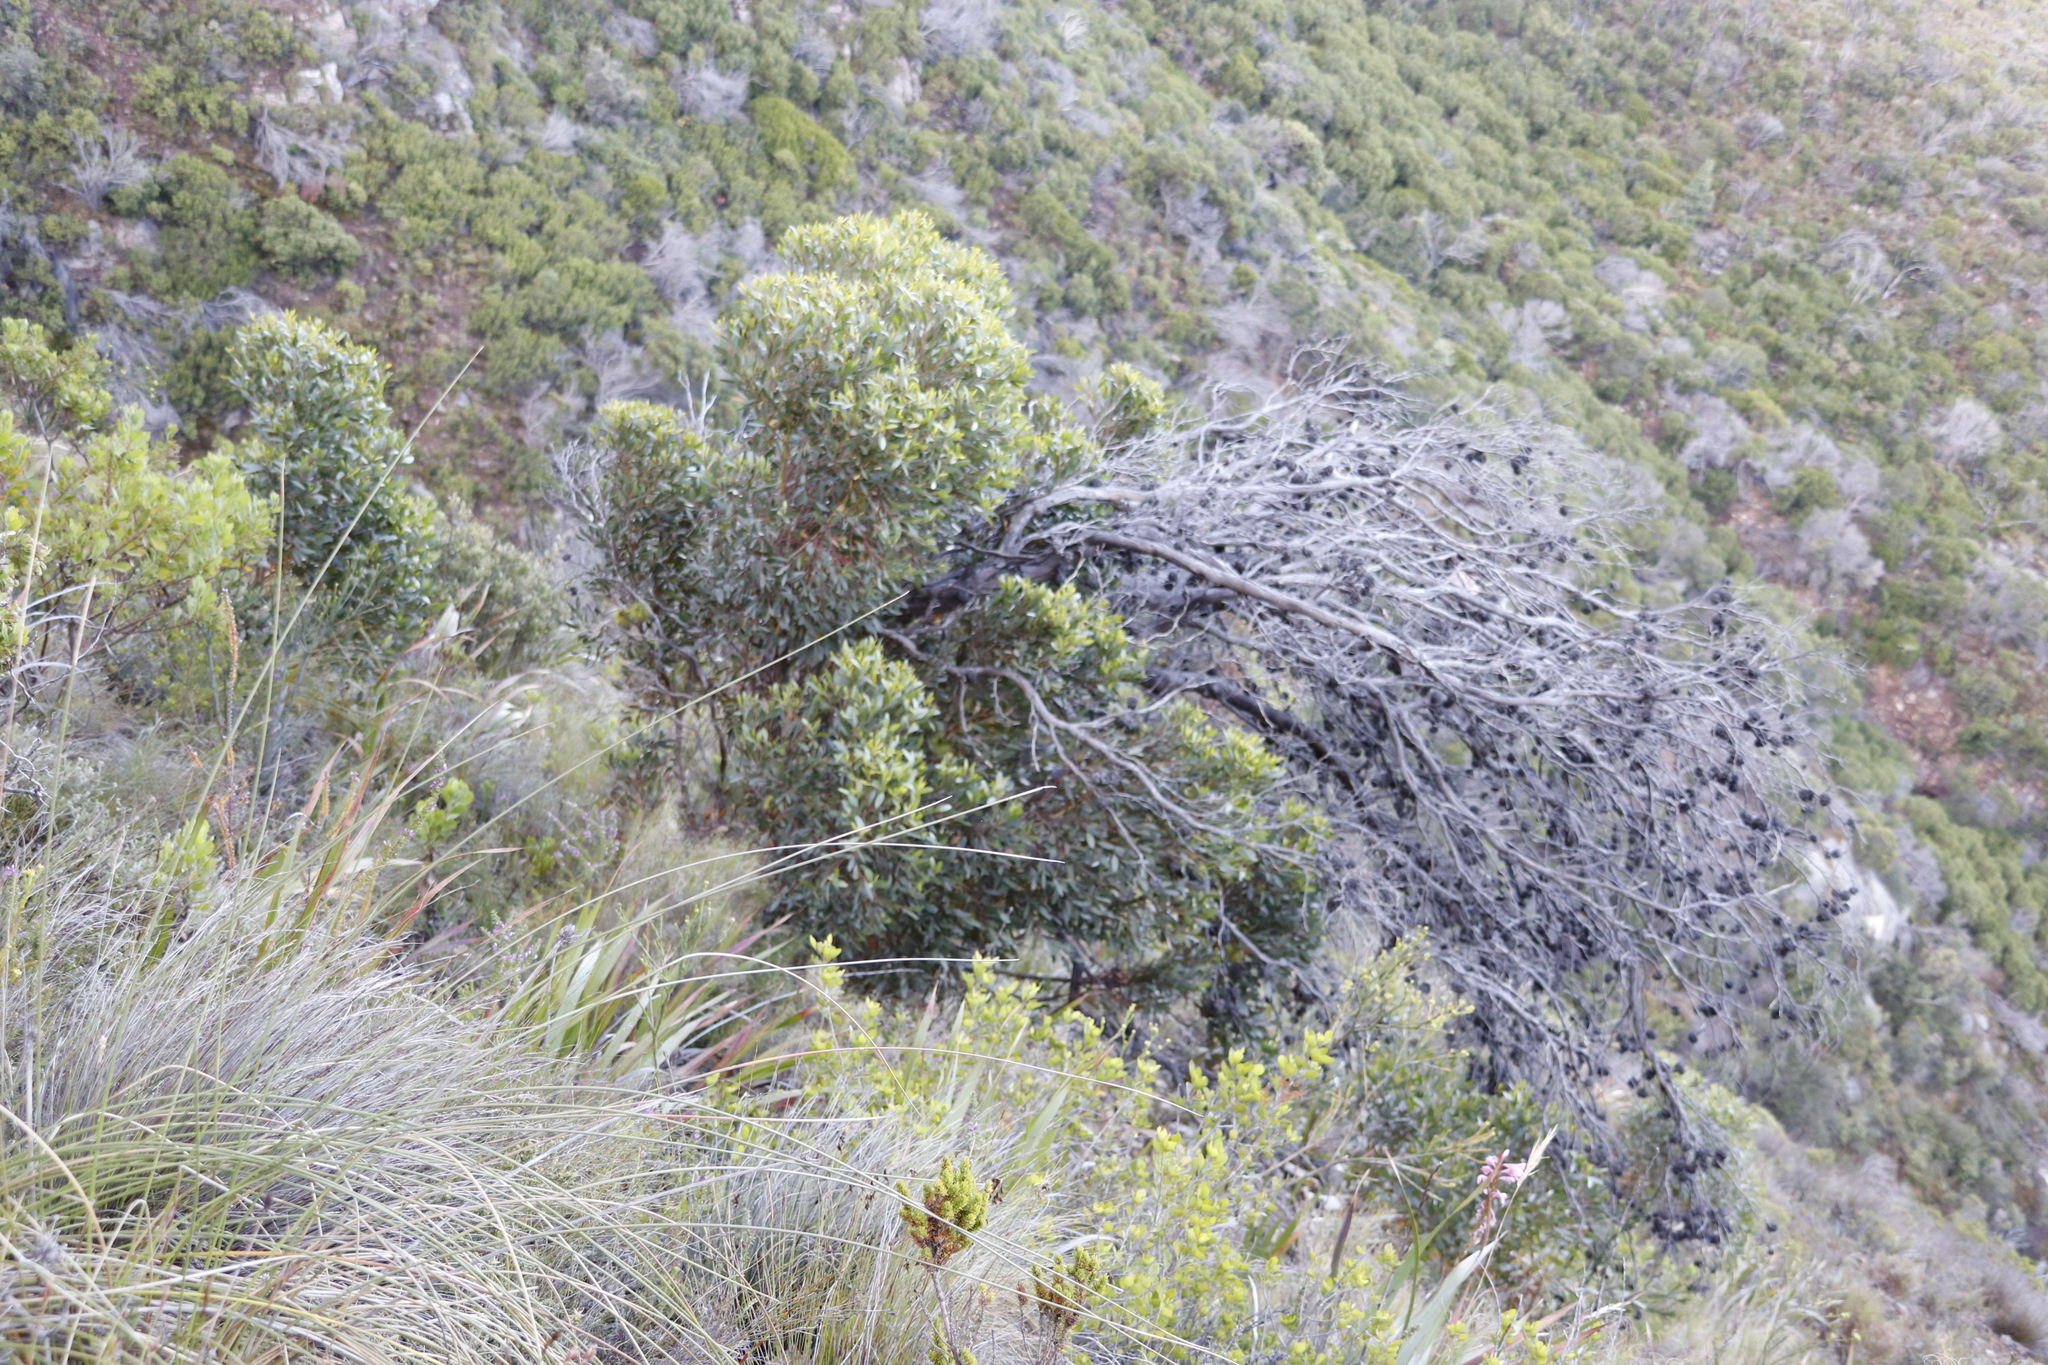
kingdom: Plantae
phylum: Tracheophyta
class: Magnoliopsida
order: Myrtales
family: Myrtaceae
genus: Eucalyptus
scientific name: Eucalyptus conferruminata
